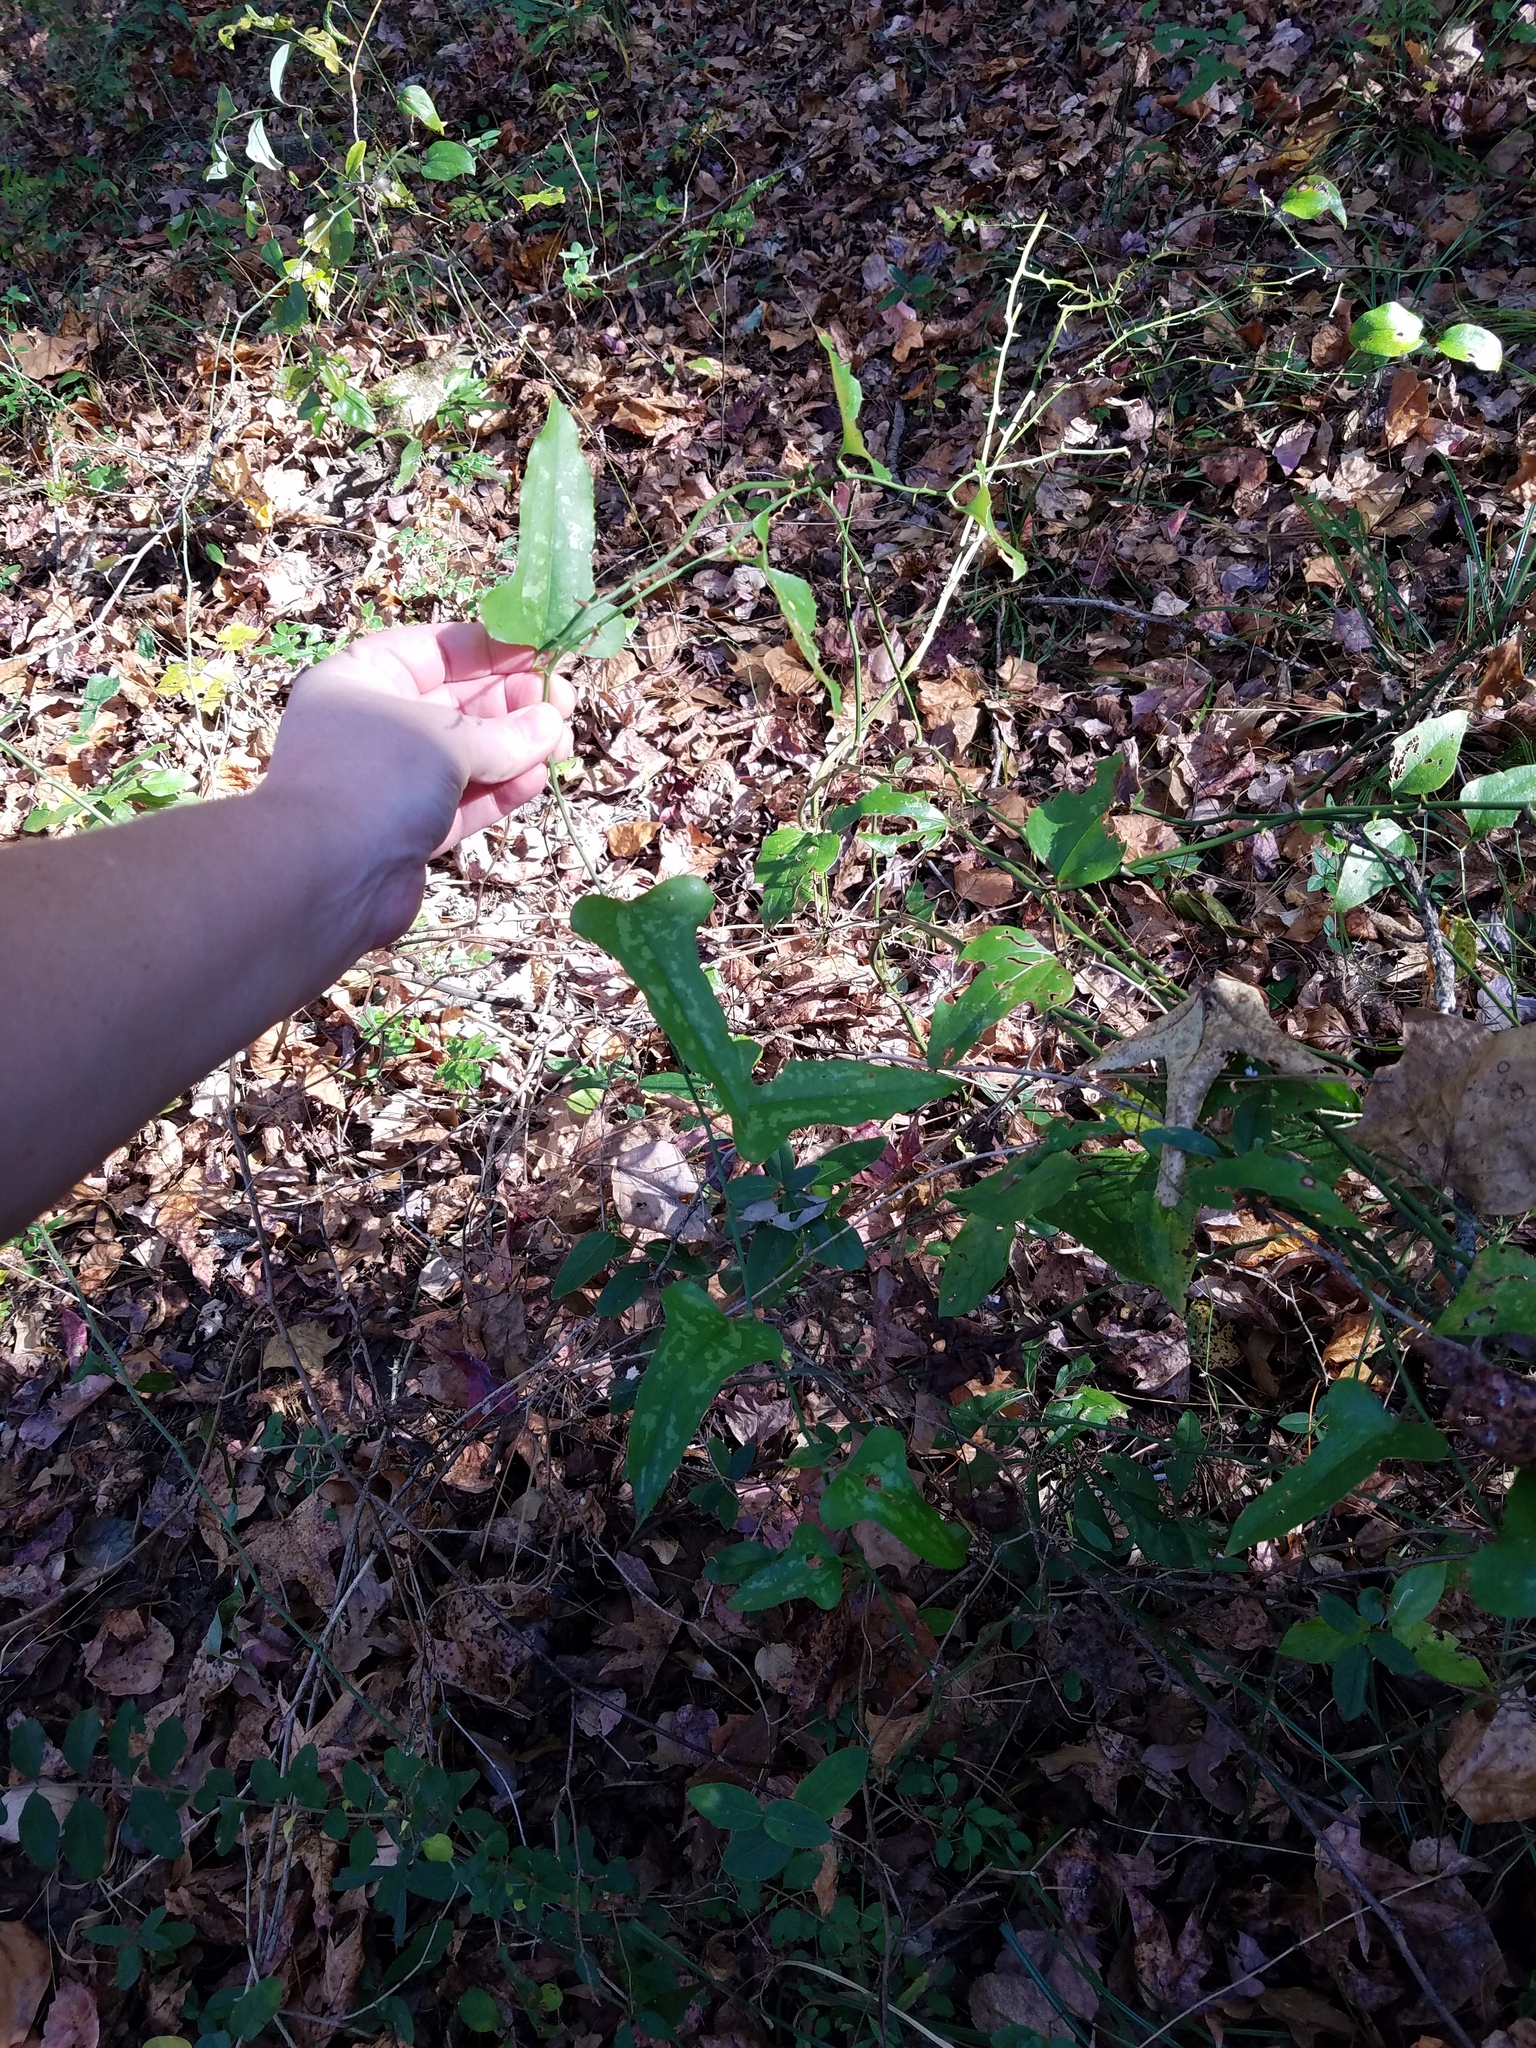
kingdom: Plantae
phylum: Tracheophyta
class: Liliopsida
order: Liliales
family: Smilacaceae
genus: Smilax
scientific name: Smilax bona-nox
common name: Catbrier
